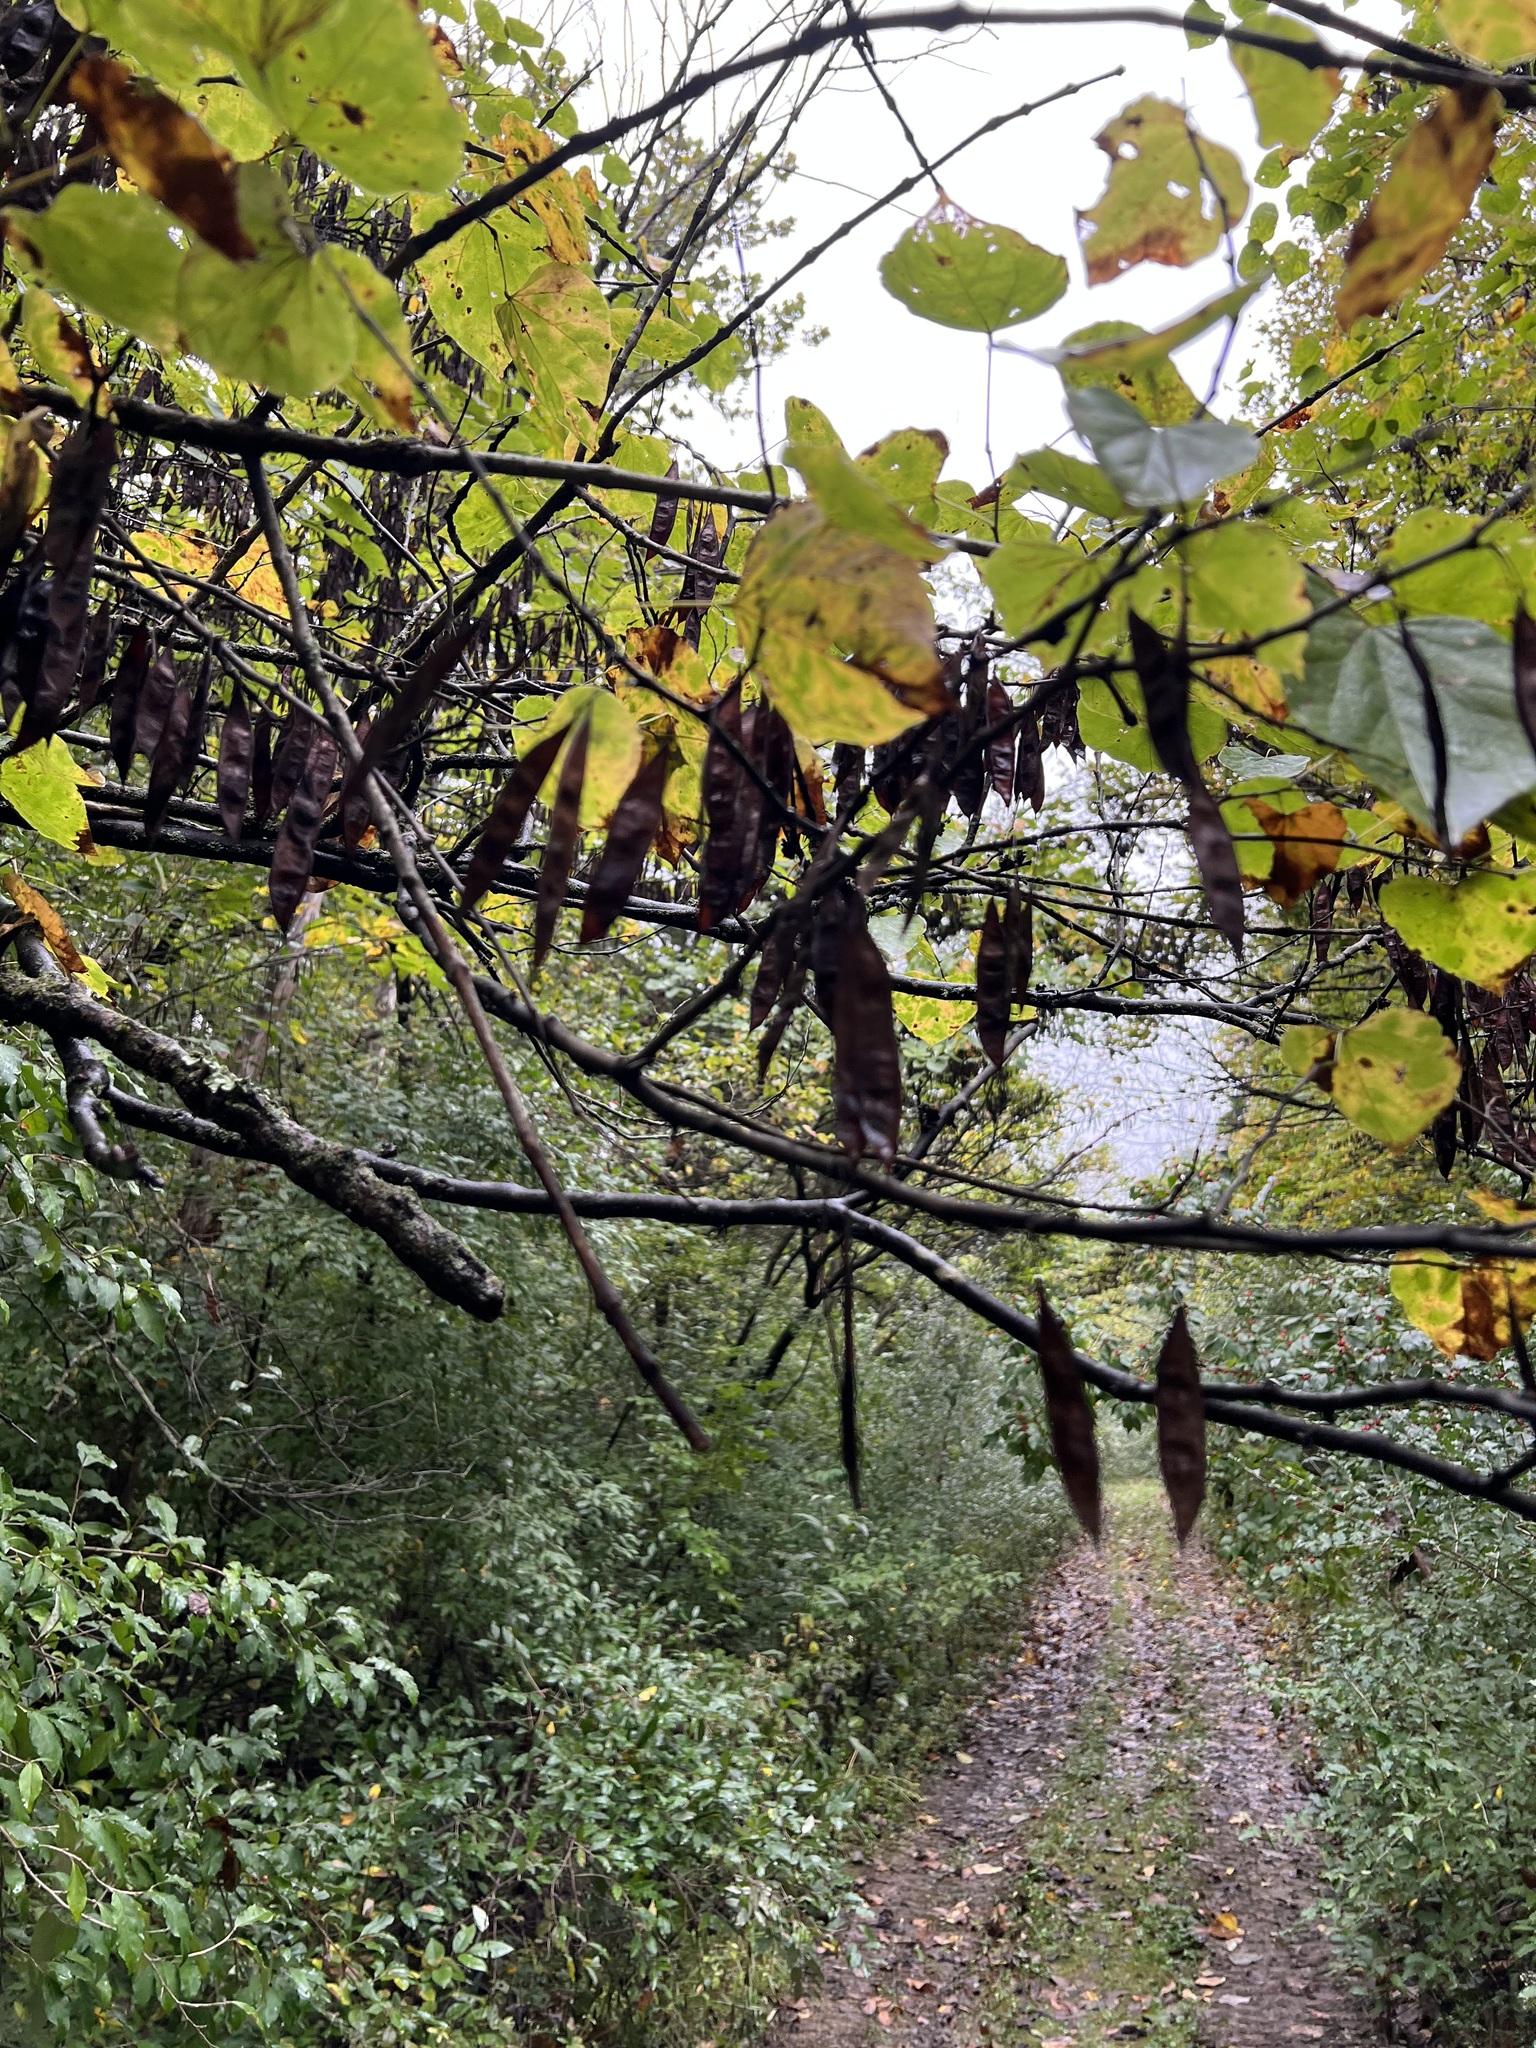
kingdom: Plantae
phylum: Tracheophyta
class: Magnoliopsida
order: Fabales
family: Fabaceae
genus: Cercis
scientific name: Cercis canadensis
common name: Eastern redbud
